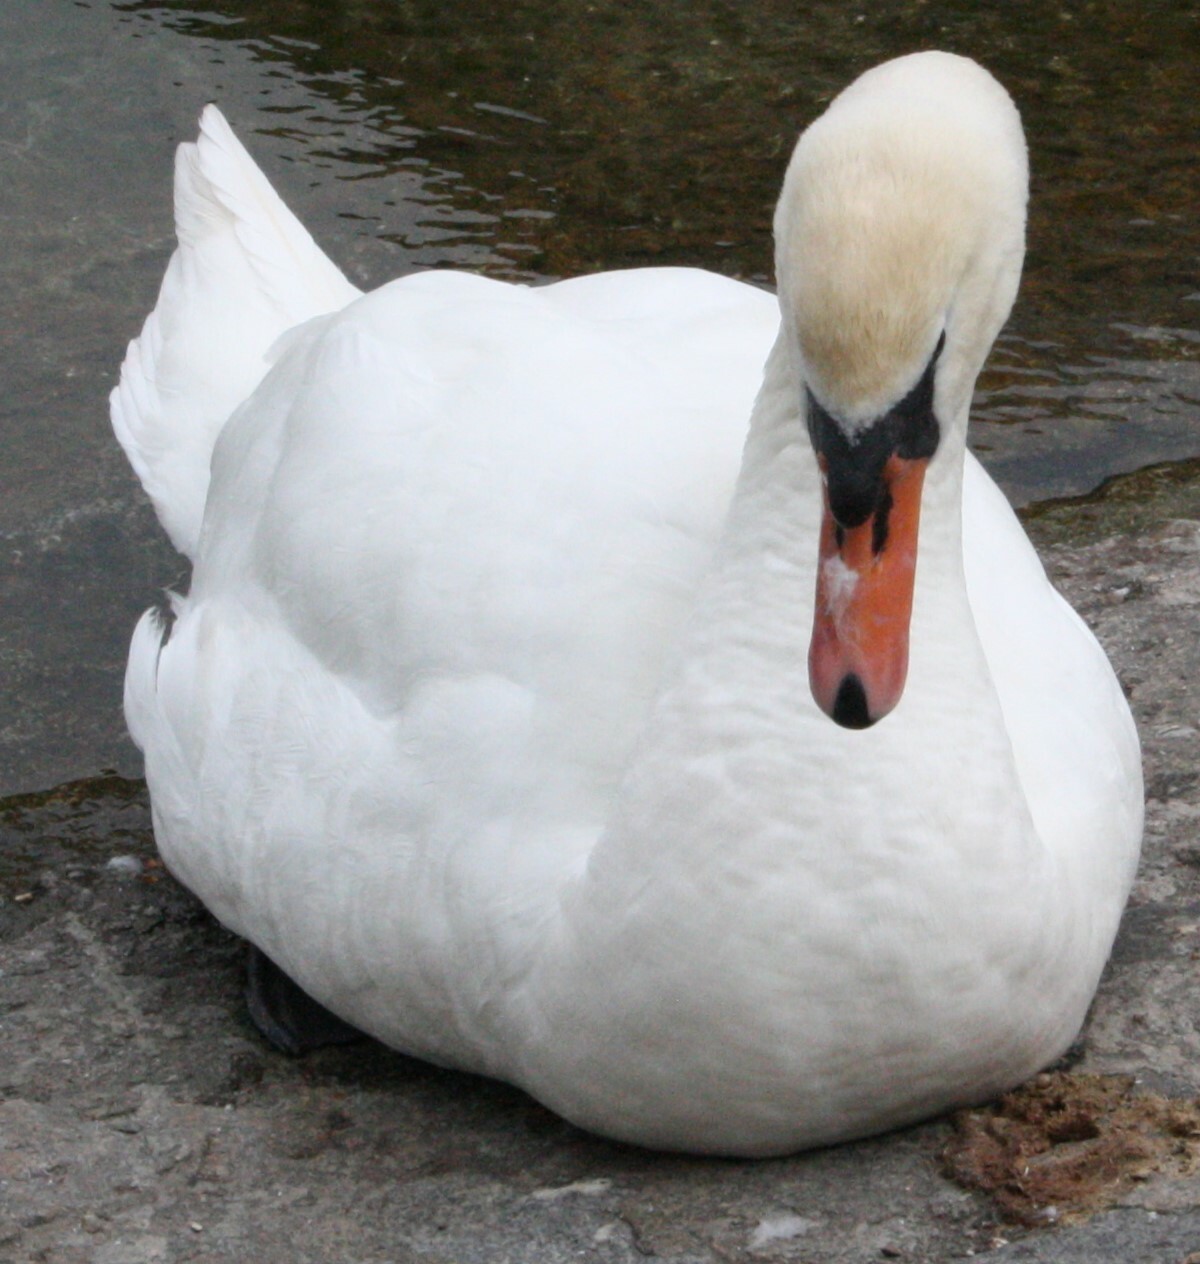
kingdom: Animalia
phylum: Chordata
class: Aves
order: Anseriformes
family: Anatidae
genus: Cygnus
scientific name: Cygnus olor
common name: Mute swan
